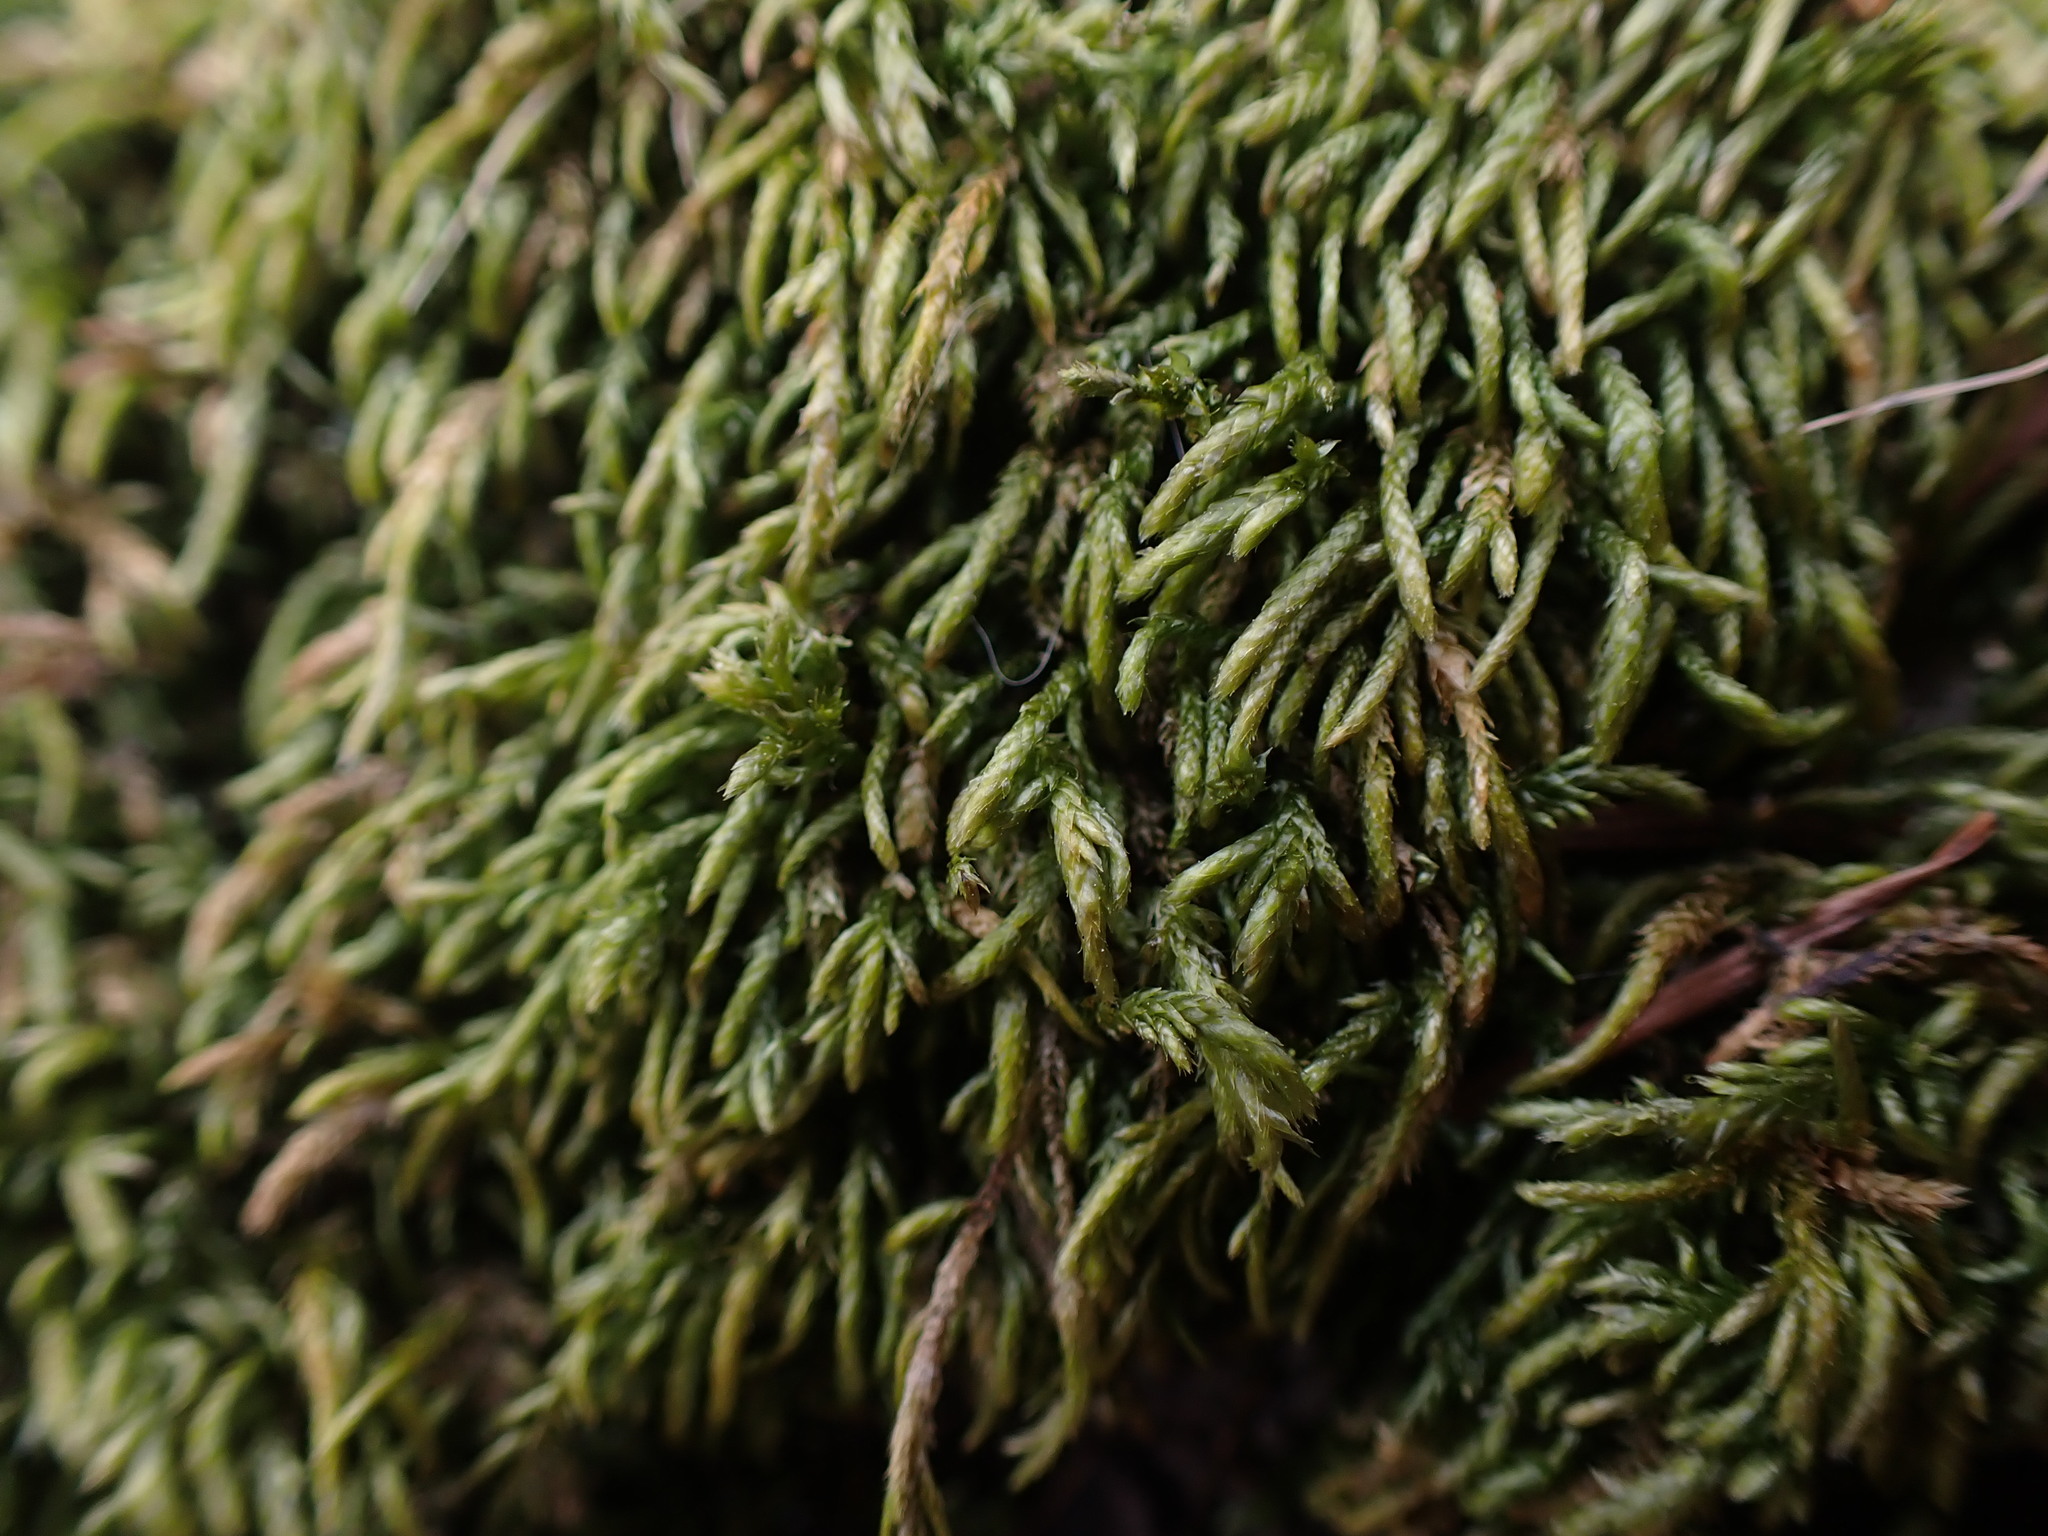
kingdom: Plantae
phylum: Bryophyta
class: Bryopsida
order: Hypnales
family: Lembophyllaceae
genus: Pseudisothecium
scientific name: Pseudisothecium cristatum
